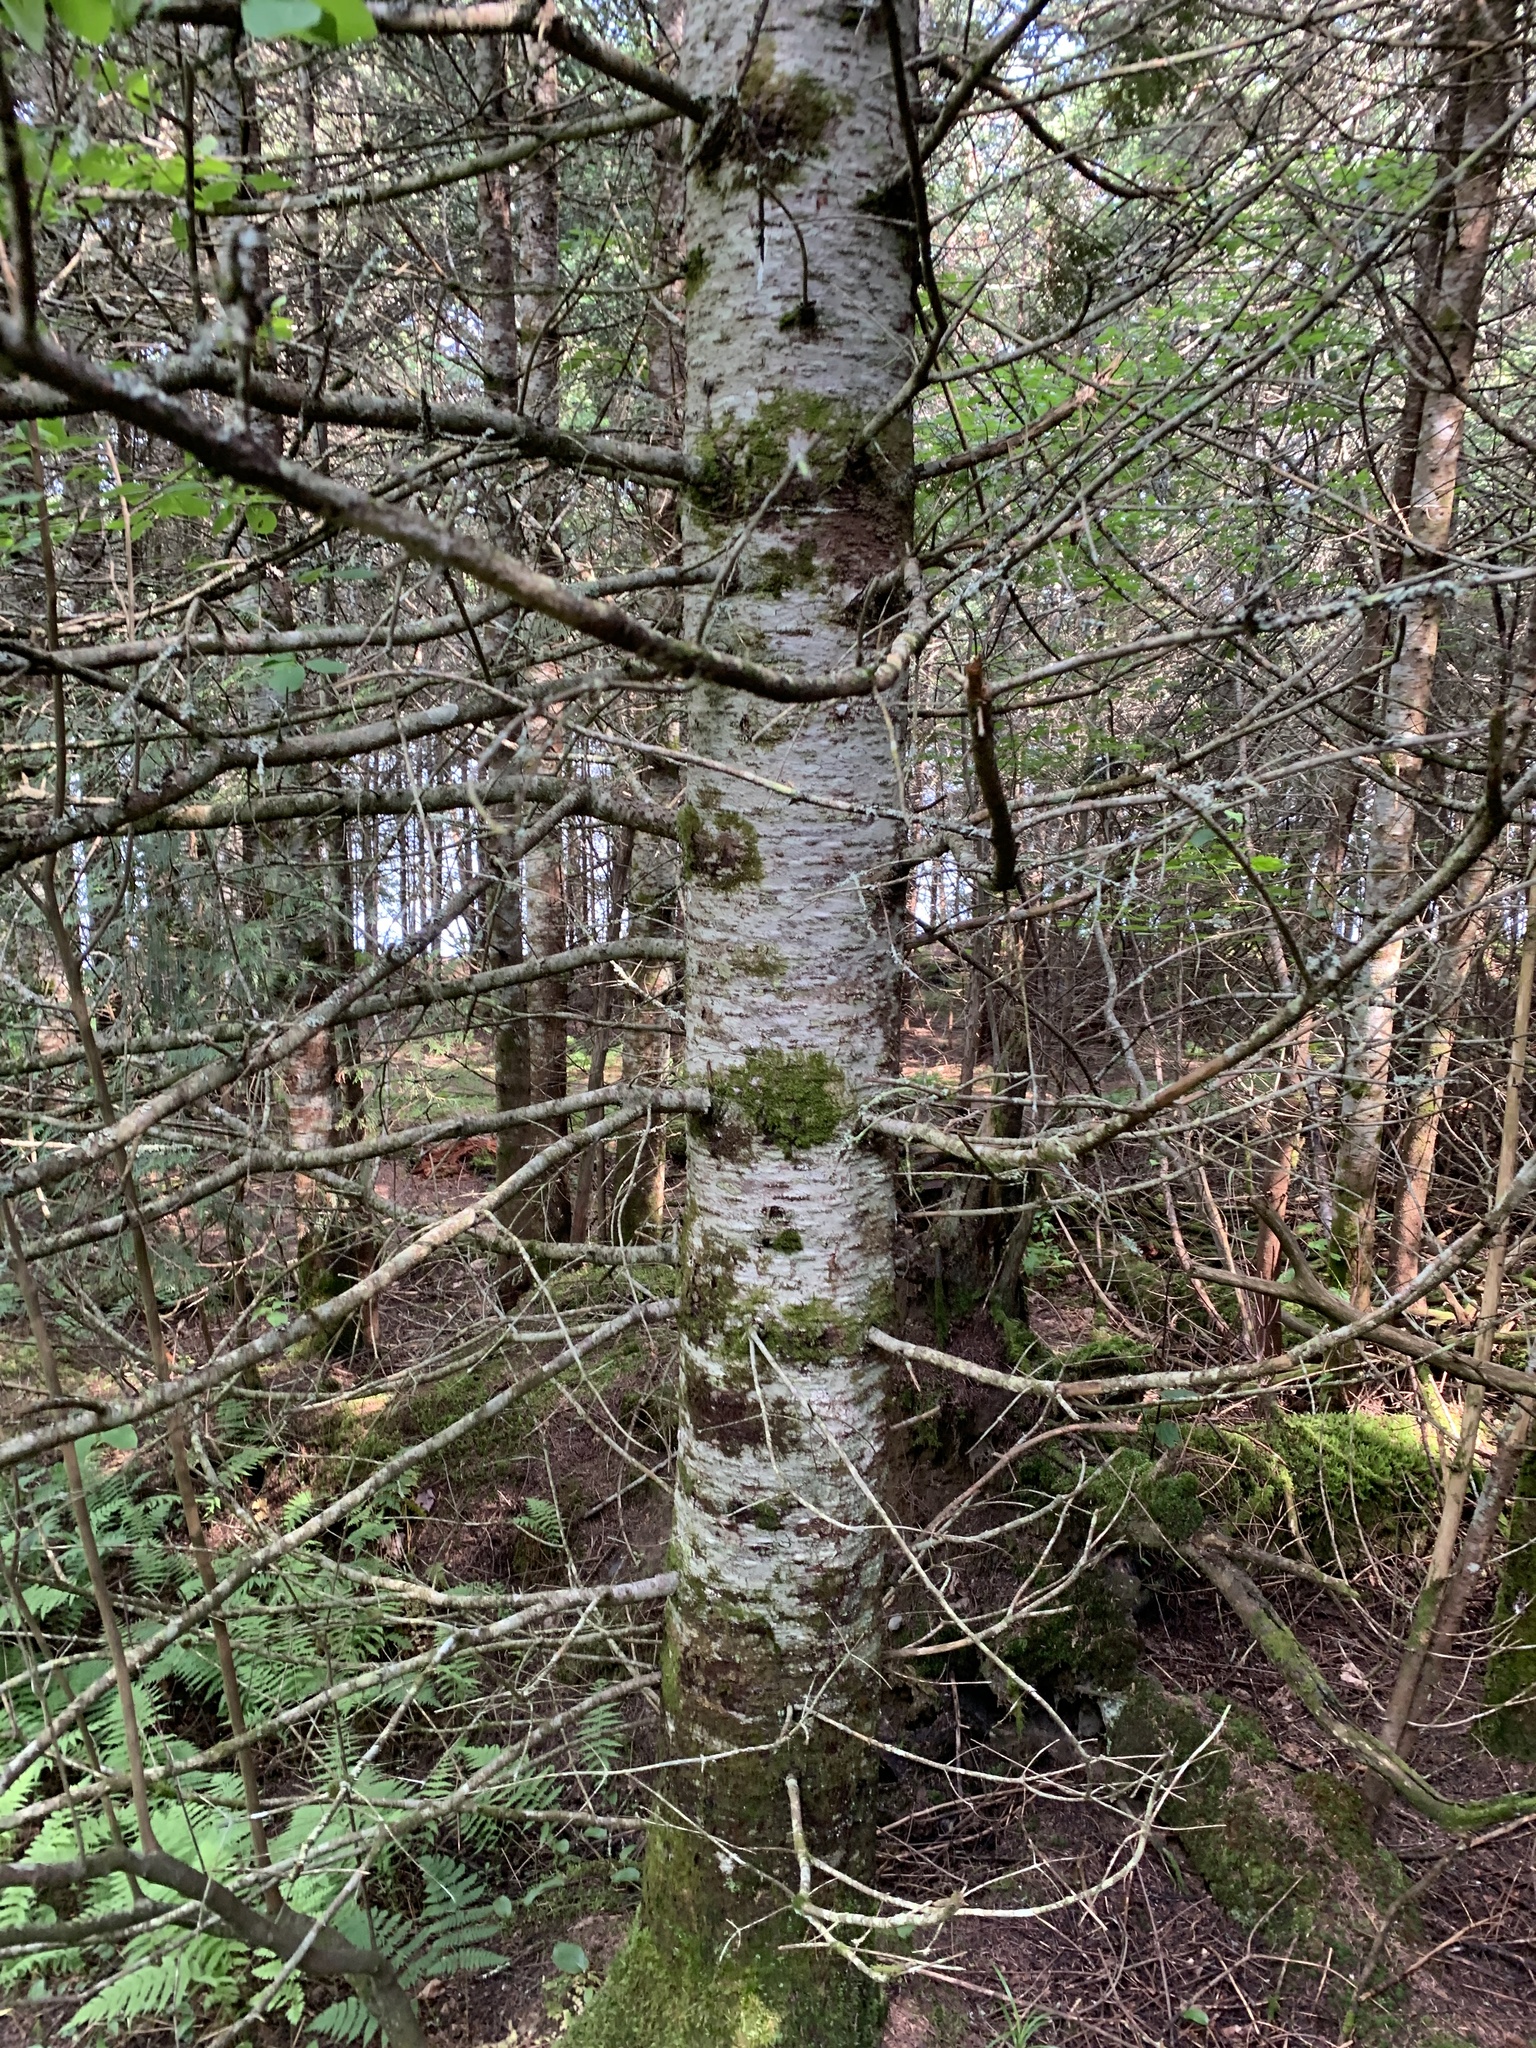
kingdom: Plantae
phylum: Tracheophyta
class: Pinopsida
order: Pinales
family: Pinaceae
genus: Abies
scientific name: Abies balsamea
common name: Balsam fir
